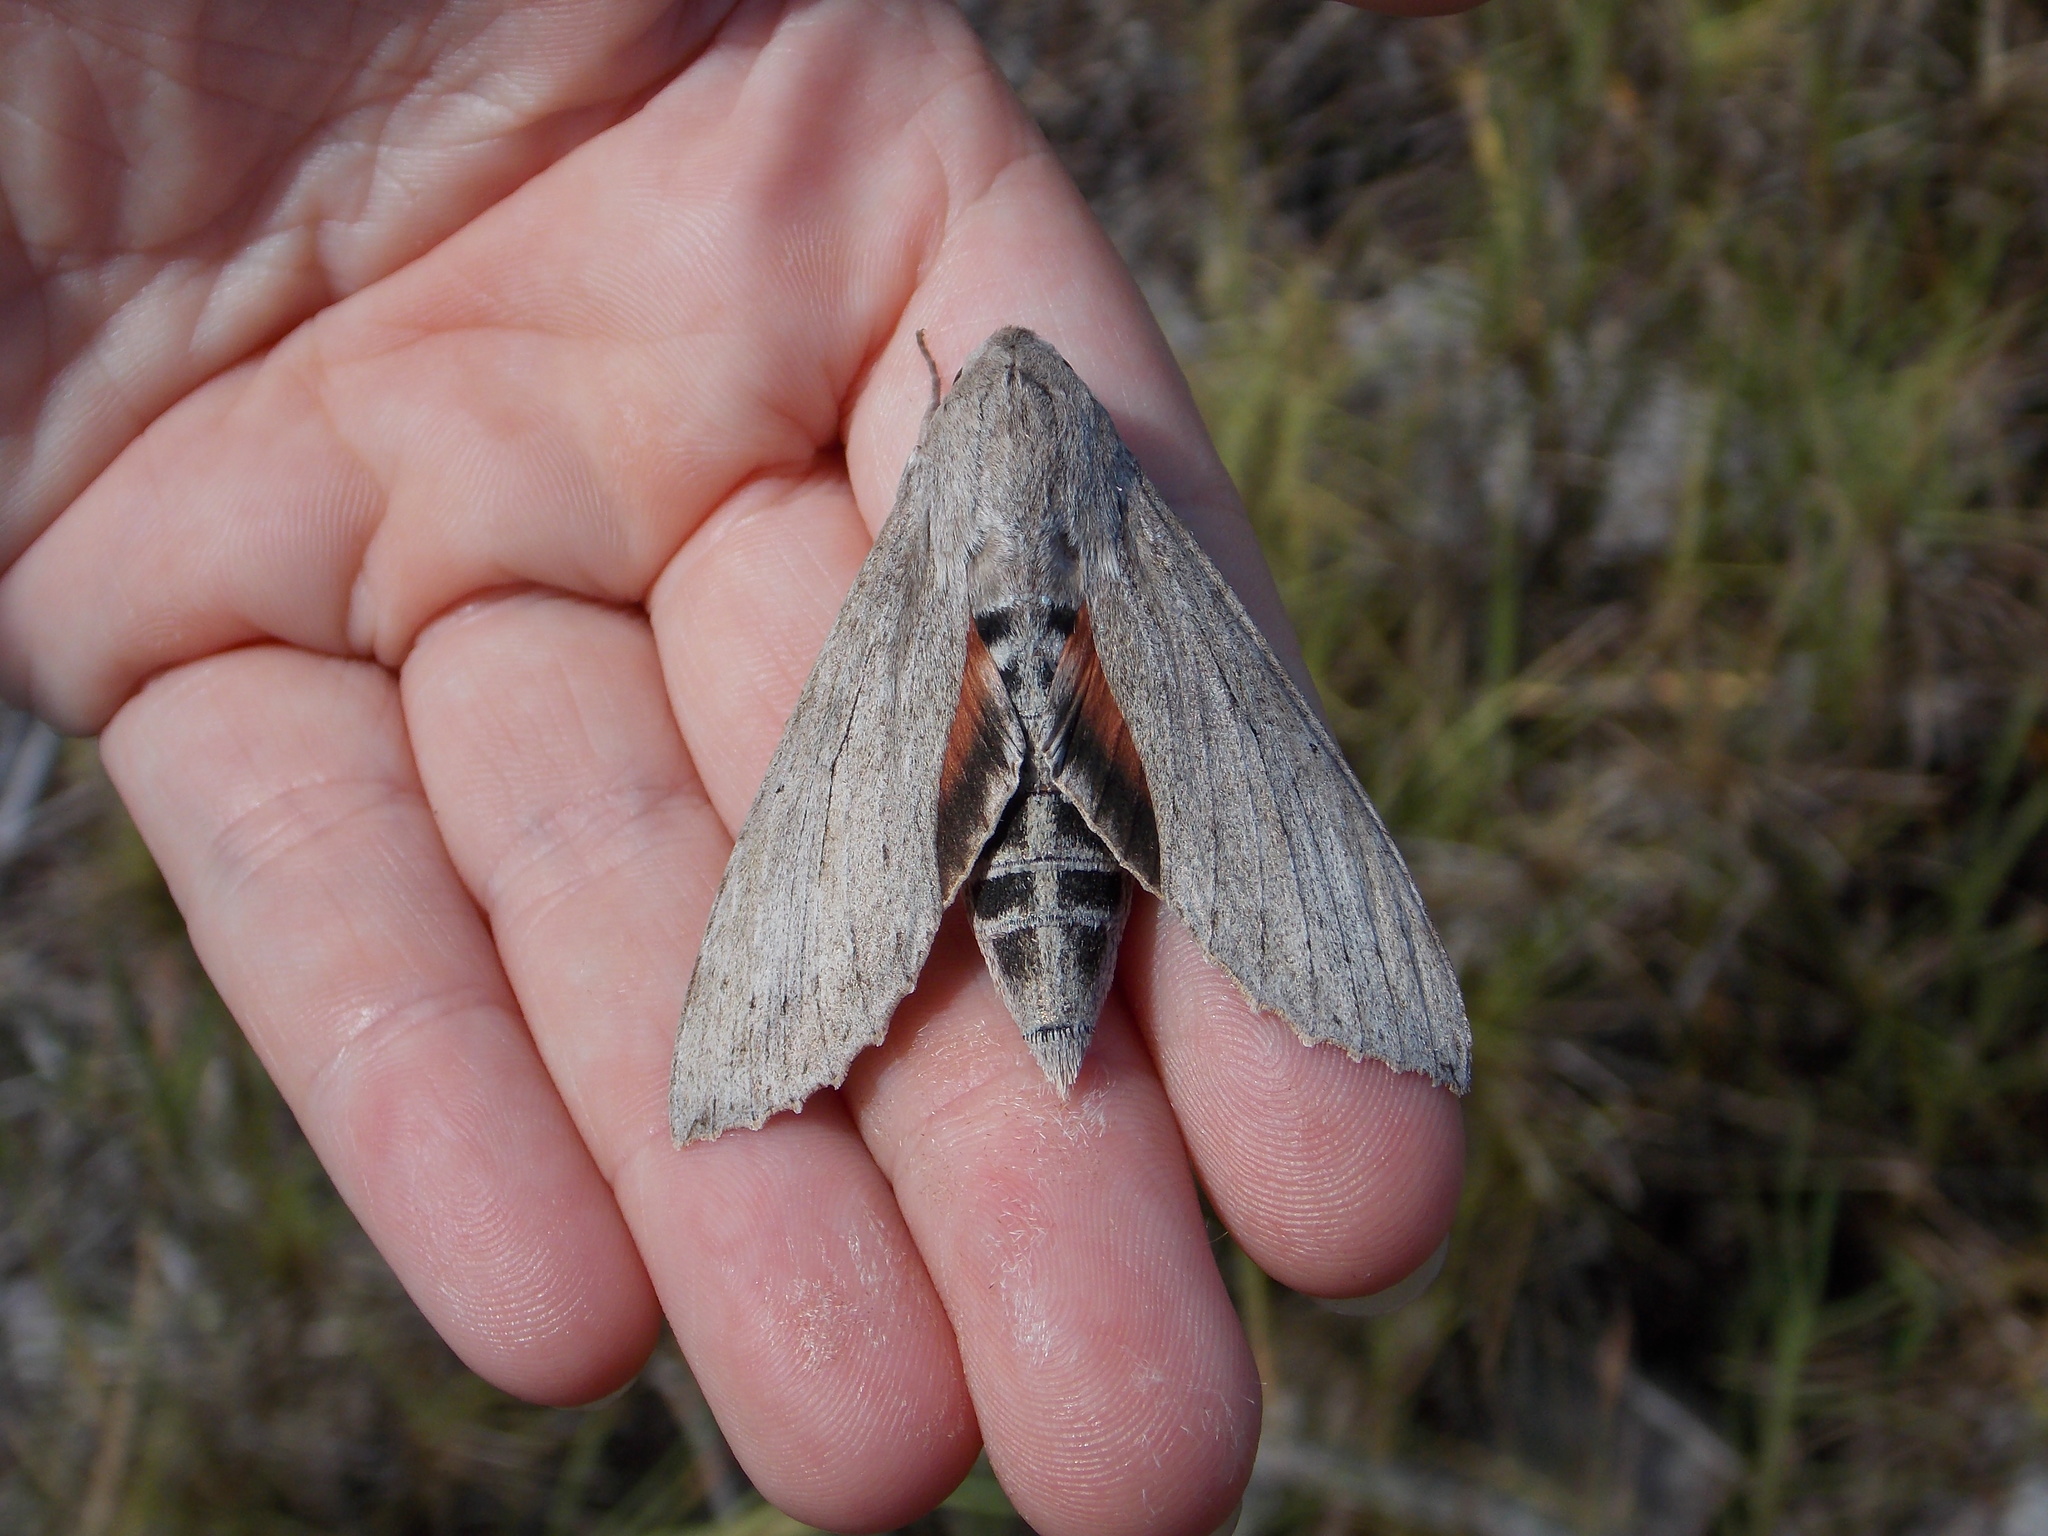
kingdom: Animalia
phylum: Arthropoda
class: Insecta
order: Lepidoptera
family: Sphingidae
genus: Erinnyis
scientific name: Erinnyis ello
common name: Ello sphinx
